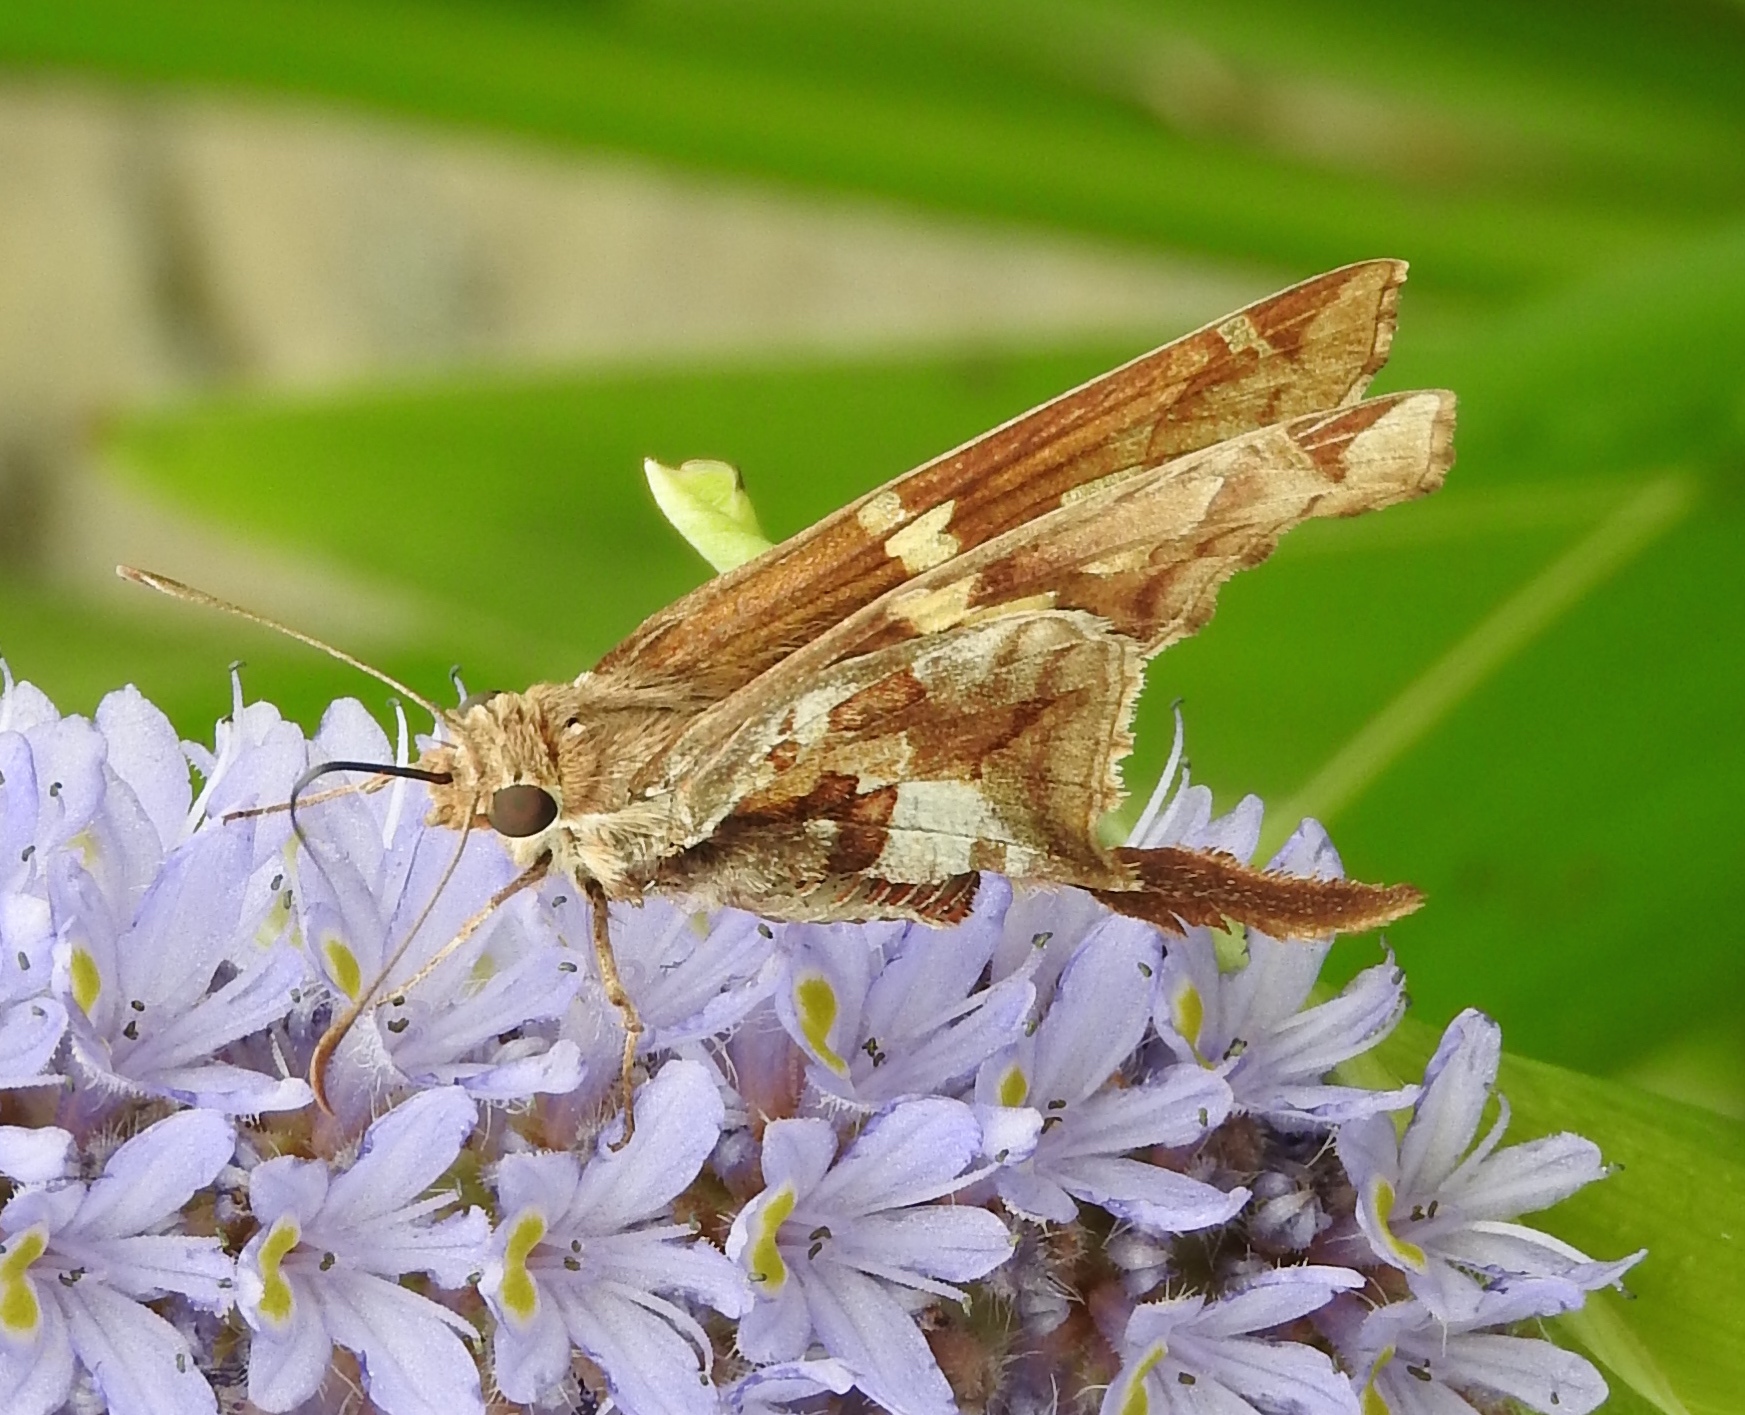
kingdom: Animalia
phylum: Arthropoda
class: Insecta
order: Lepidoptera
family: Hesperiidae
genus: Chioides
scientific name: Chioides zilpa
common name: Zilpa longtail
